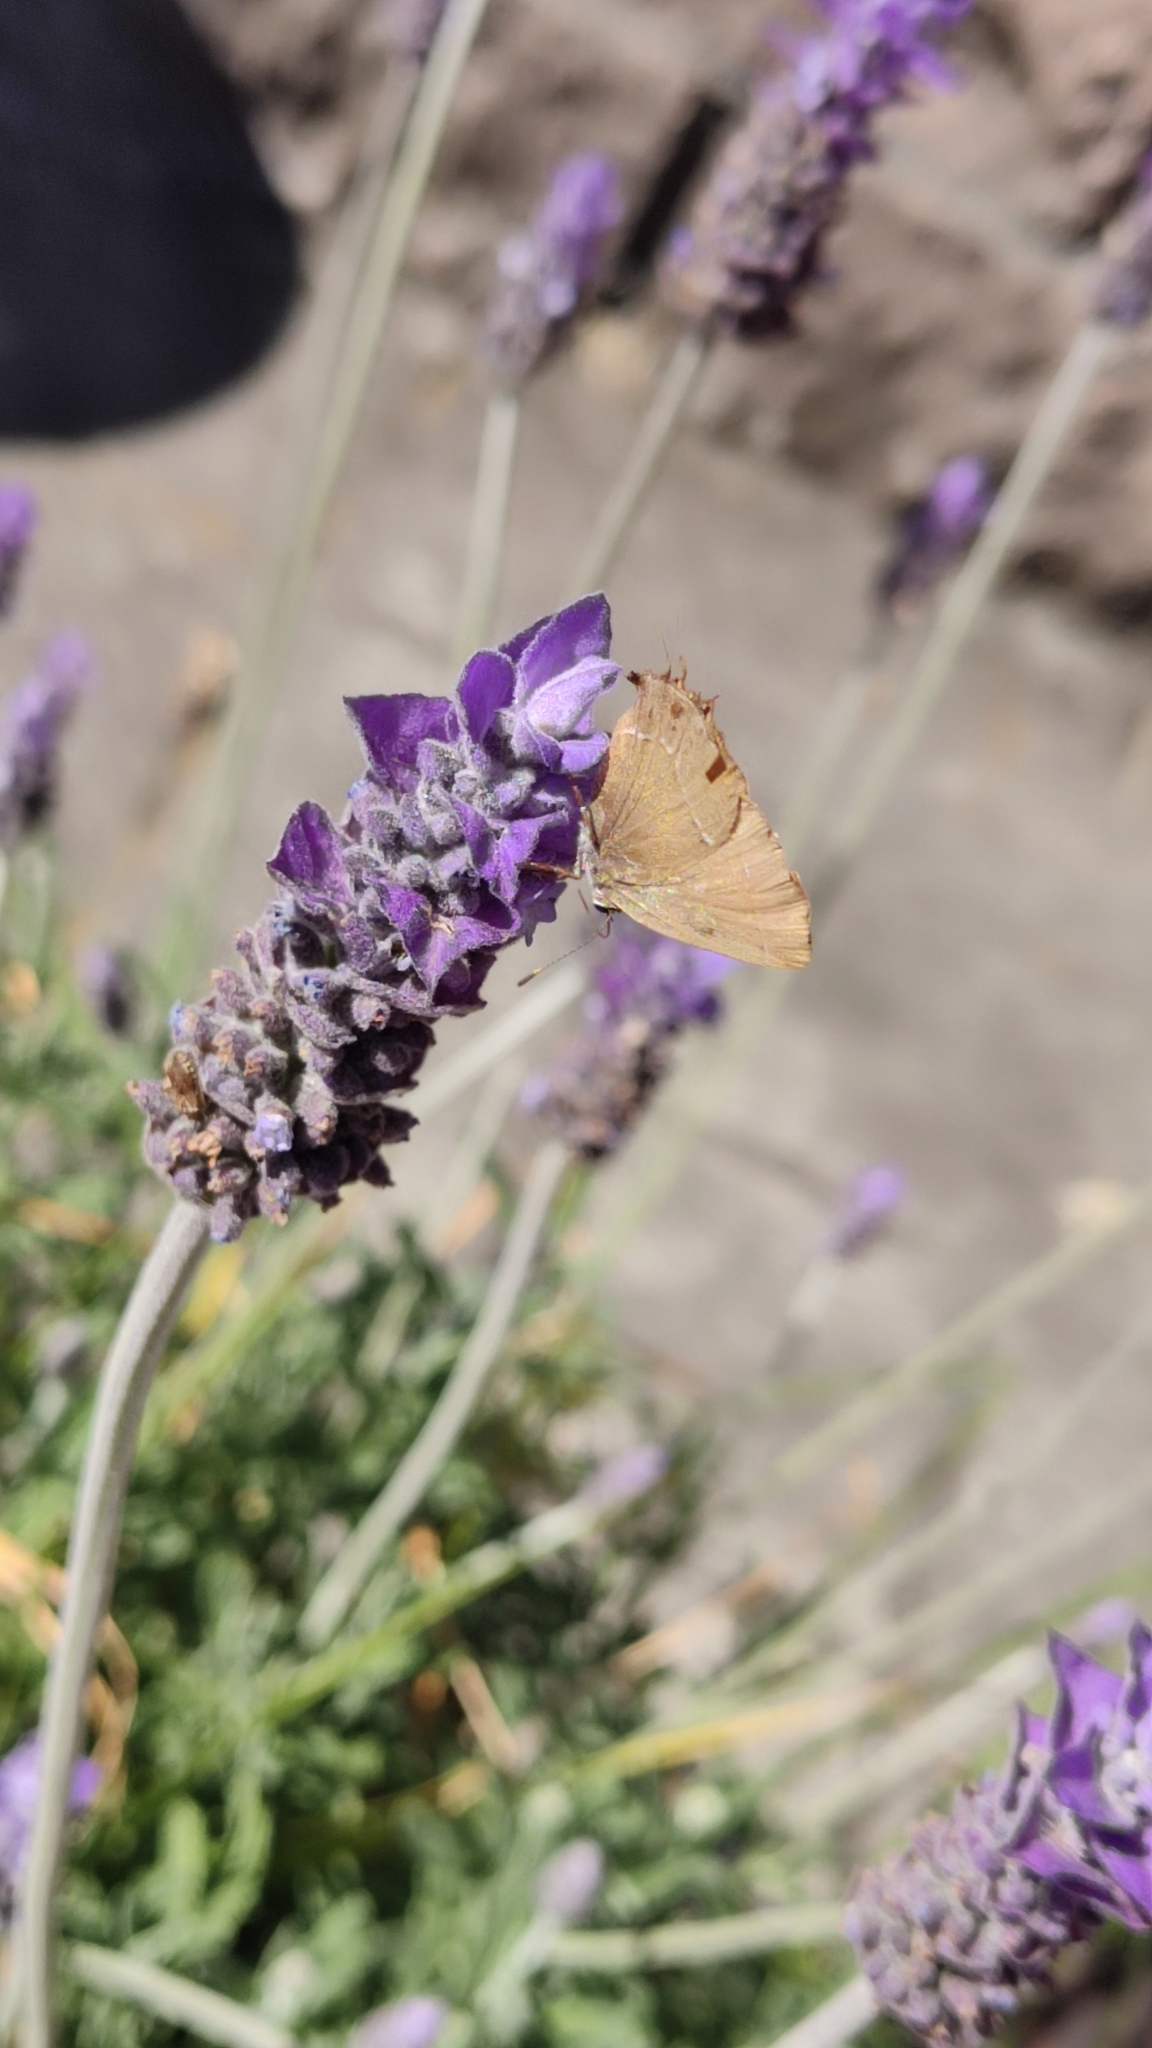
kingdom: Animalia
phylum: Arthropoda
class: Insecta
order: Lepidoptera
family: Lycaenidae
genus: Xamia
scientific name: Xamia xami
